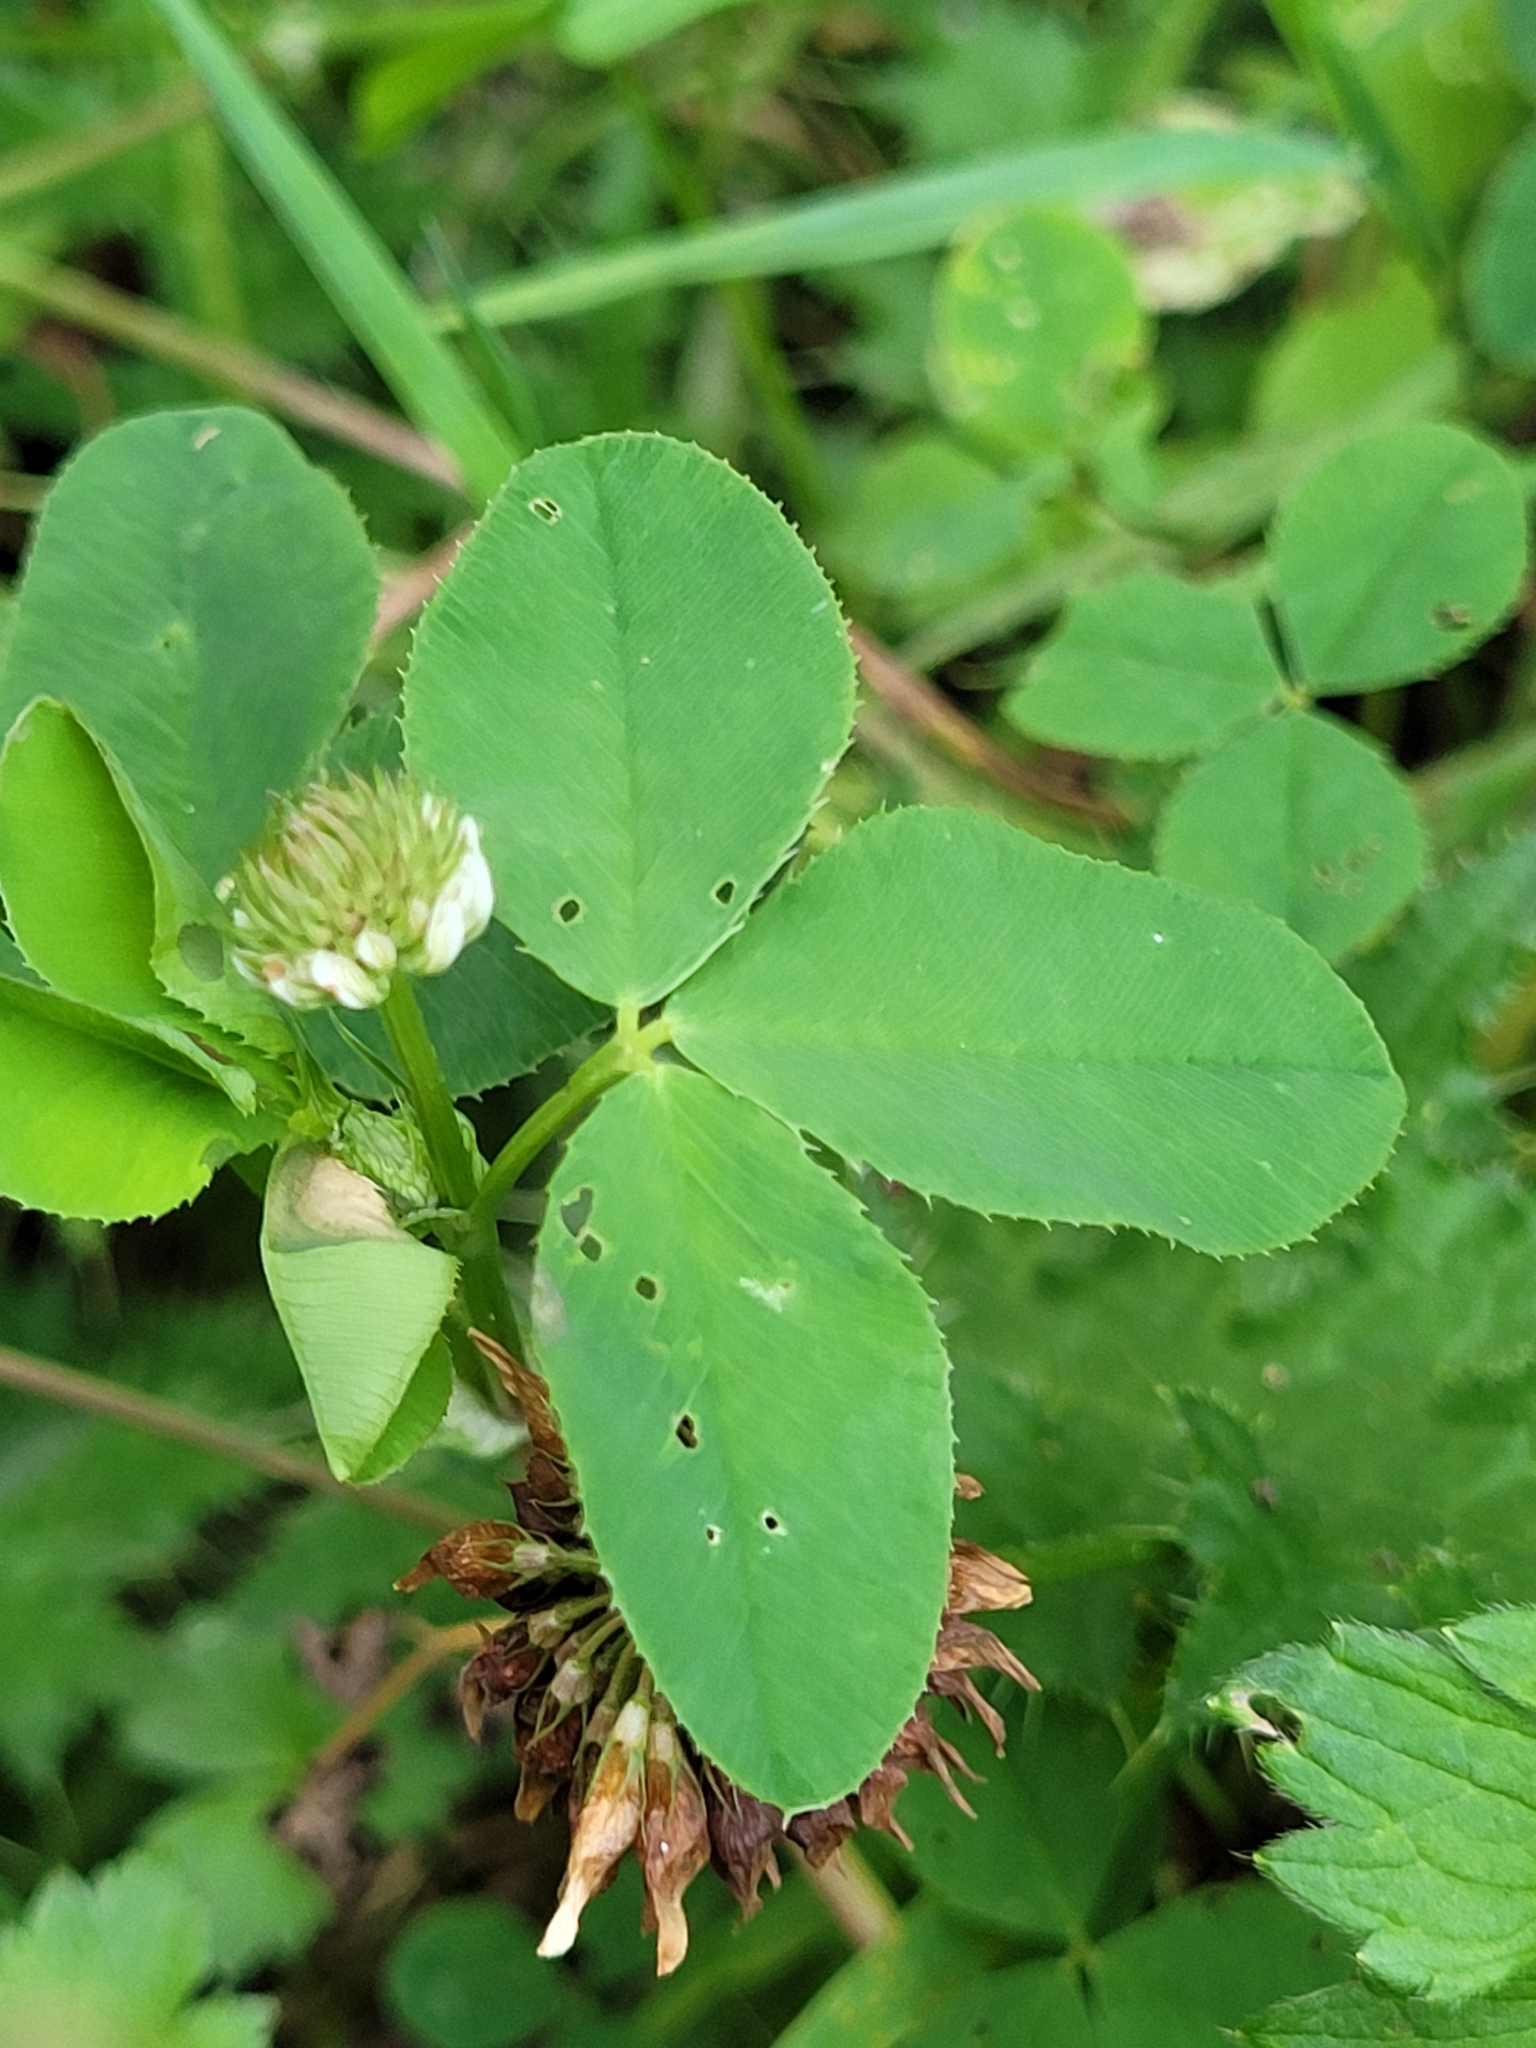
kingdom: Plantae
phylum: Tracheophyta
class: Magnoliopsida
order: Fabales
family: Fabaceae
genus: Trifolium
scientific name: Trifolium hybridum
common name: Alsike clover
